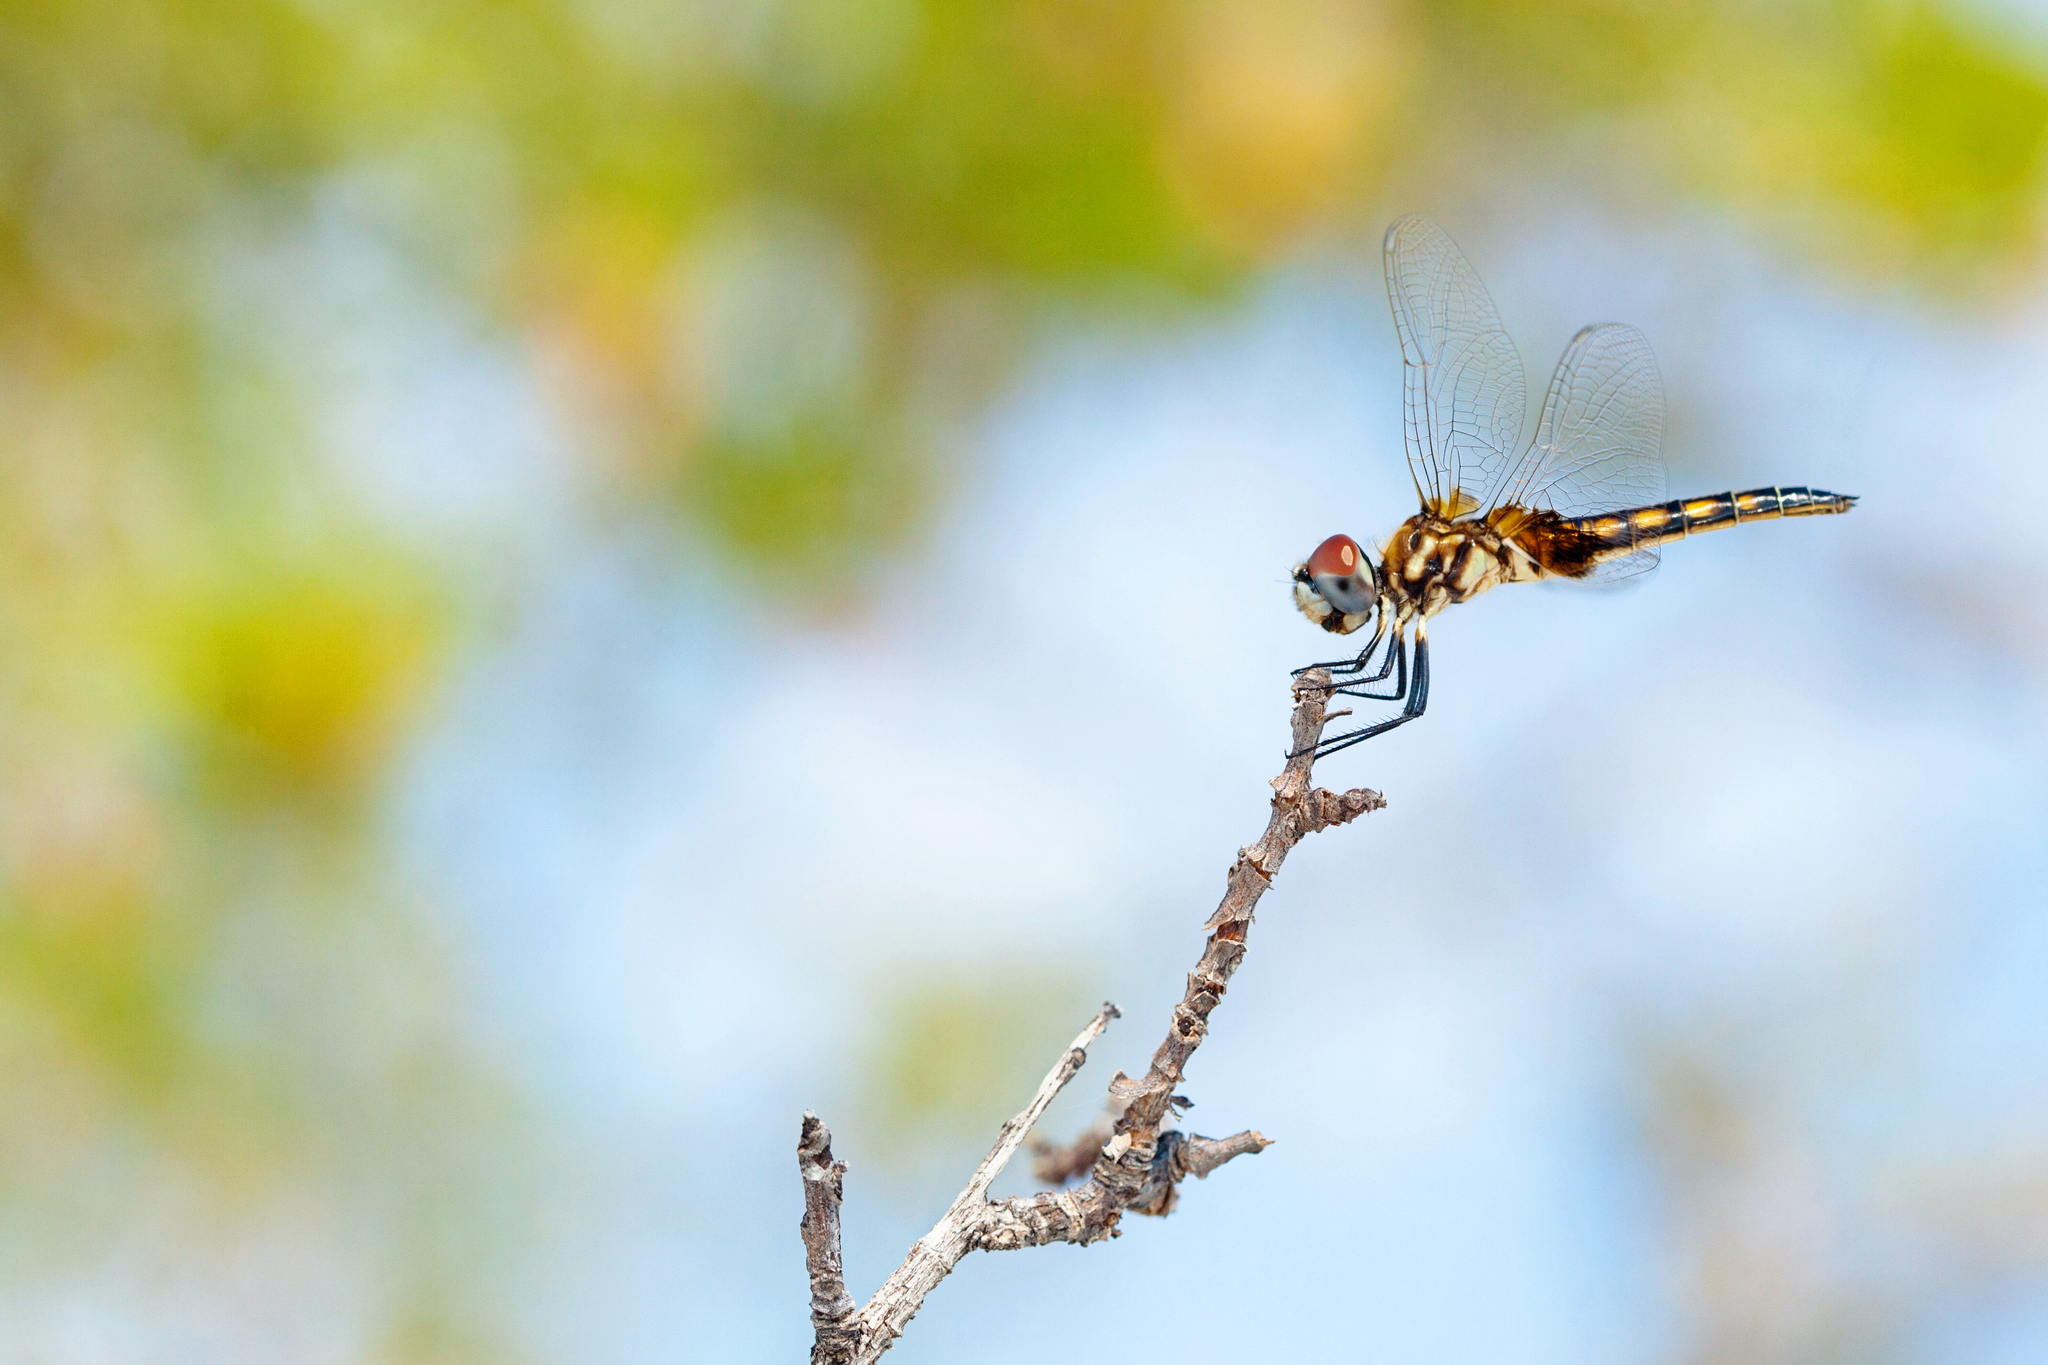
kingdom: Animalia
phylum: Arthropoda
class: Insecta
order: Odonata
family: Libellulidae
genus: Macrodiplax
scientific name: Macrodiplax balteata
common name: Marl pennant
